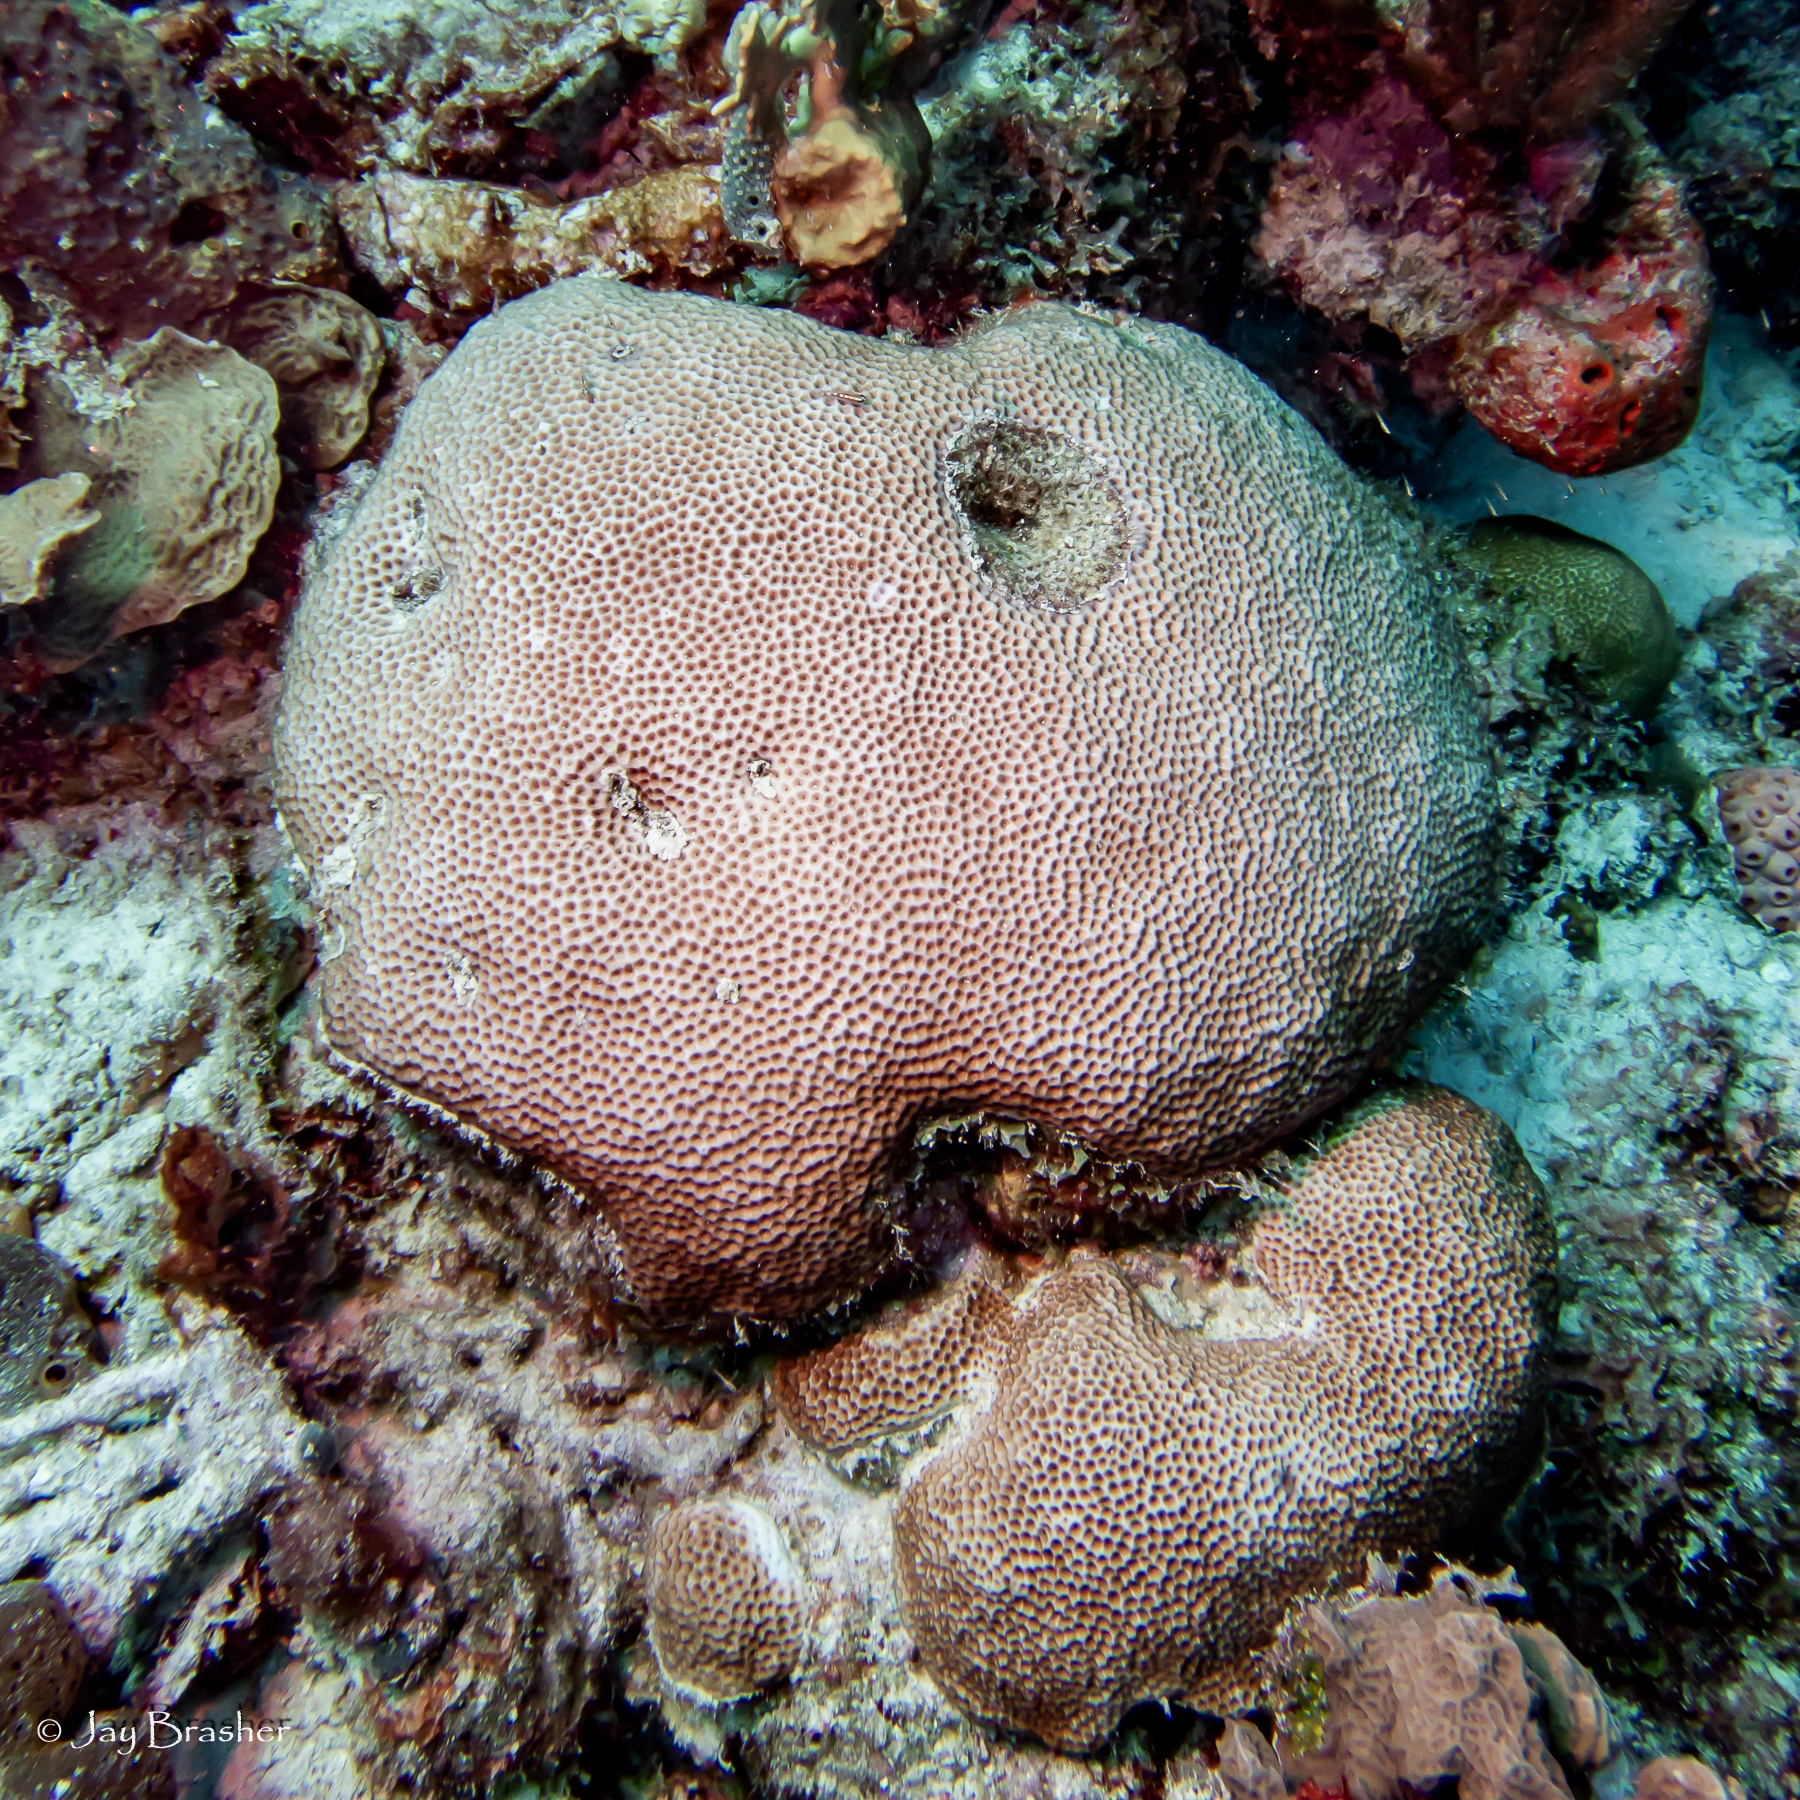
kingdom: Animalia
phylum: Cnidaria
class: Anthozoa
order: Scleractinia
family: Rhizangiidae
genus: Siderastrea
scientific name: Siderastrea siderea
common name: Massive starlet coral
